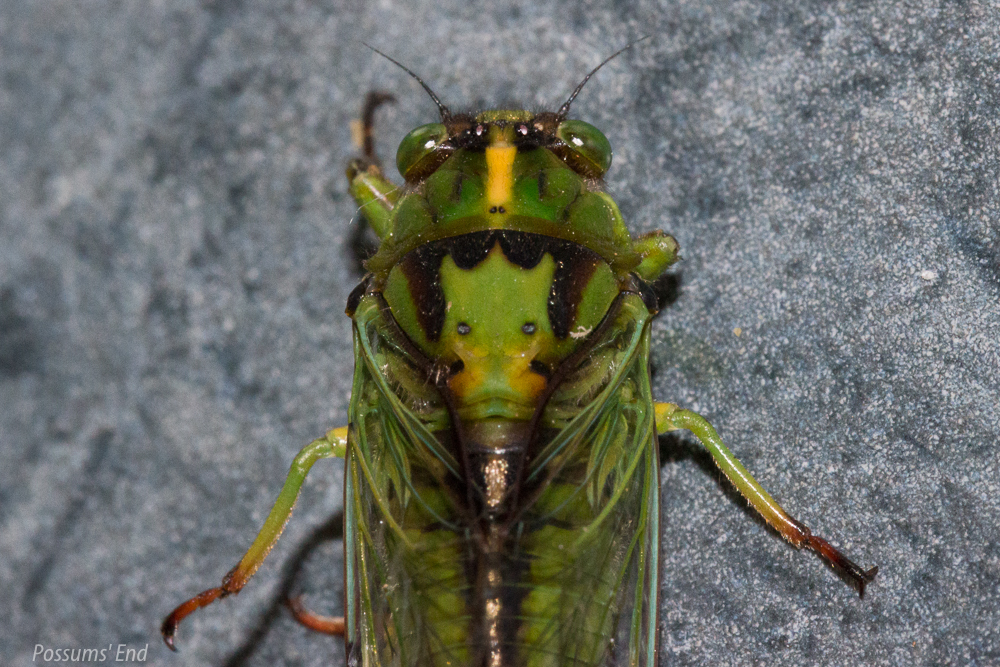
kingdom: Animalia
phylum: Arthropoda
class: Insecta
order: Hemiptera
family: Cicadidae
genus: Kikihia
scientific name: Kikihia subalpina
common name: Chathams cicada
